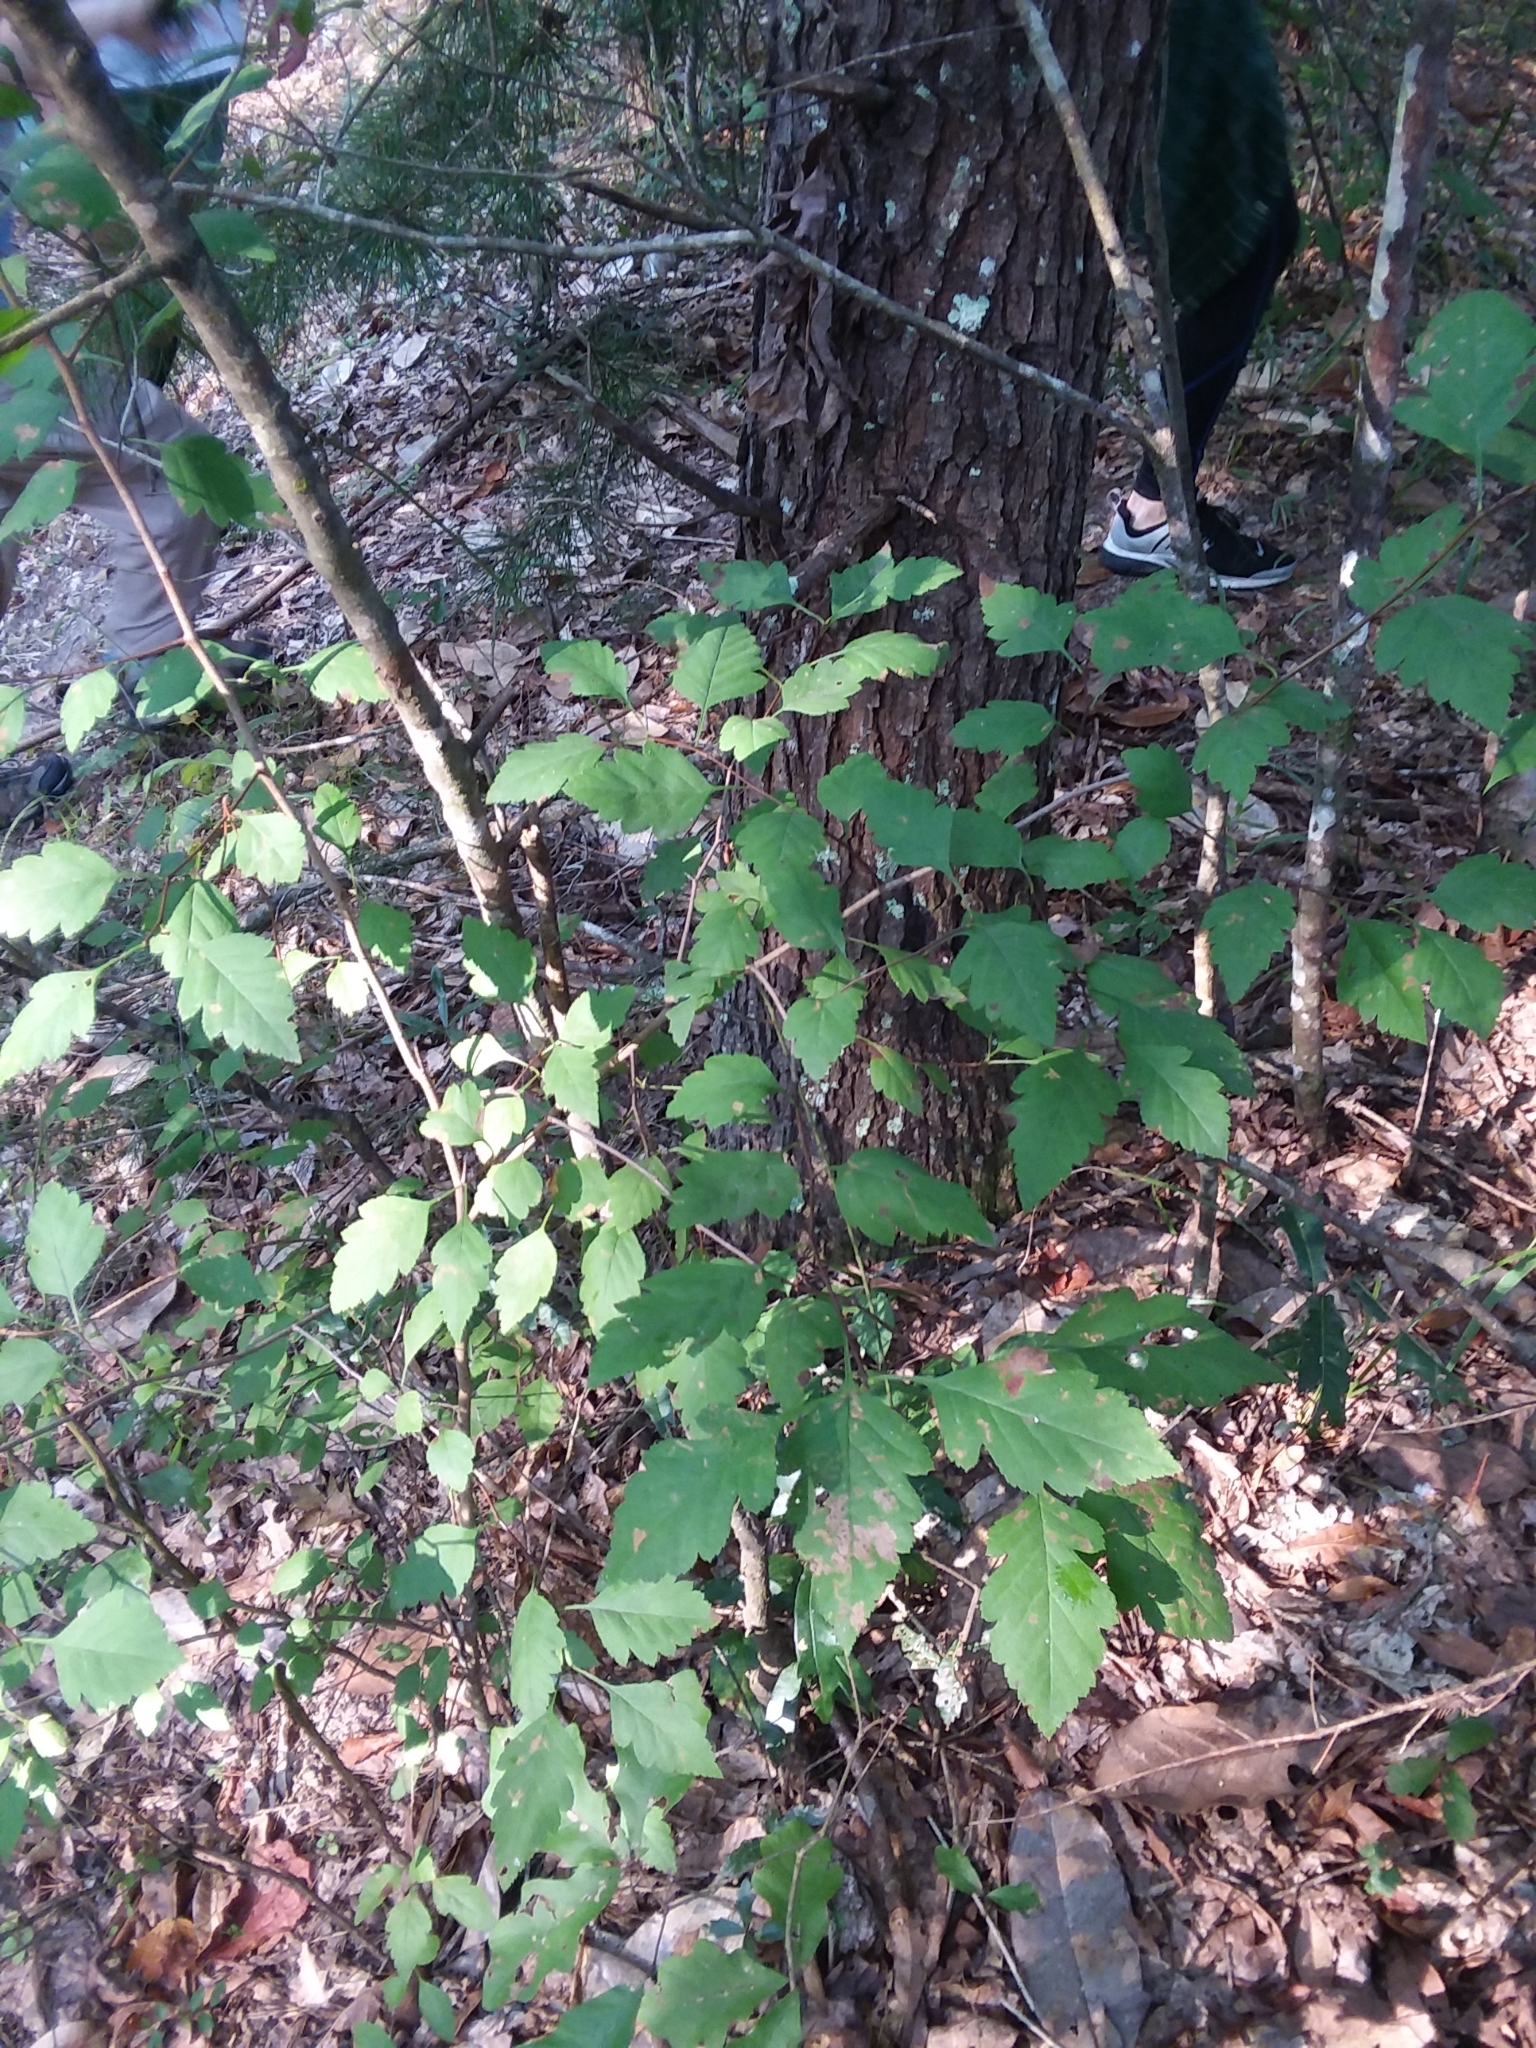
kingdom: Plantae
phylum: Tracheophyta
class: Magnoliopsida
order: Rosales
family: Rosaceae
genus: Crataegus
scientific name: Crataegus pulcherrima
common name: Beautiful hawthorn
